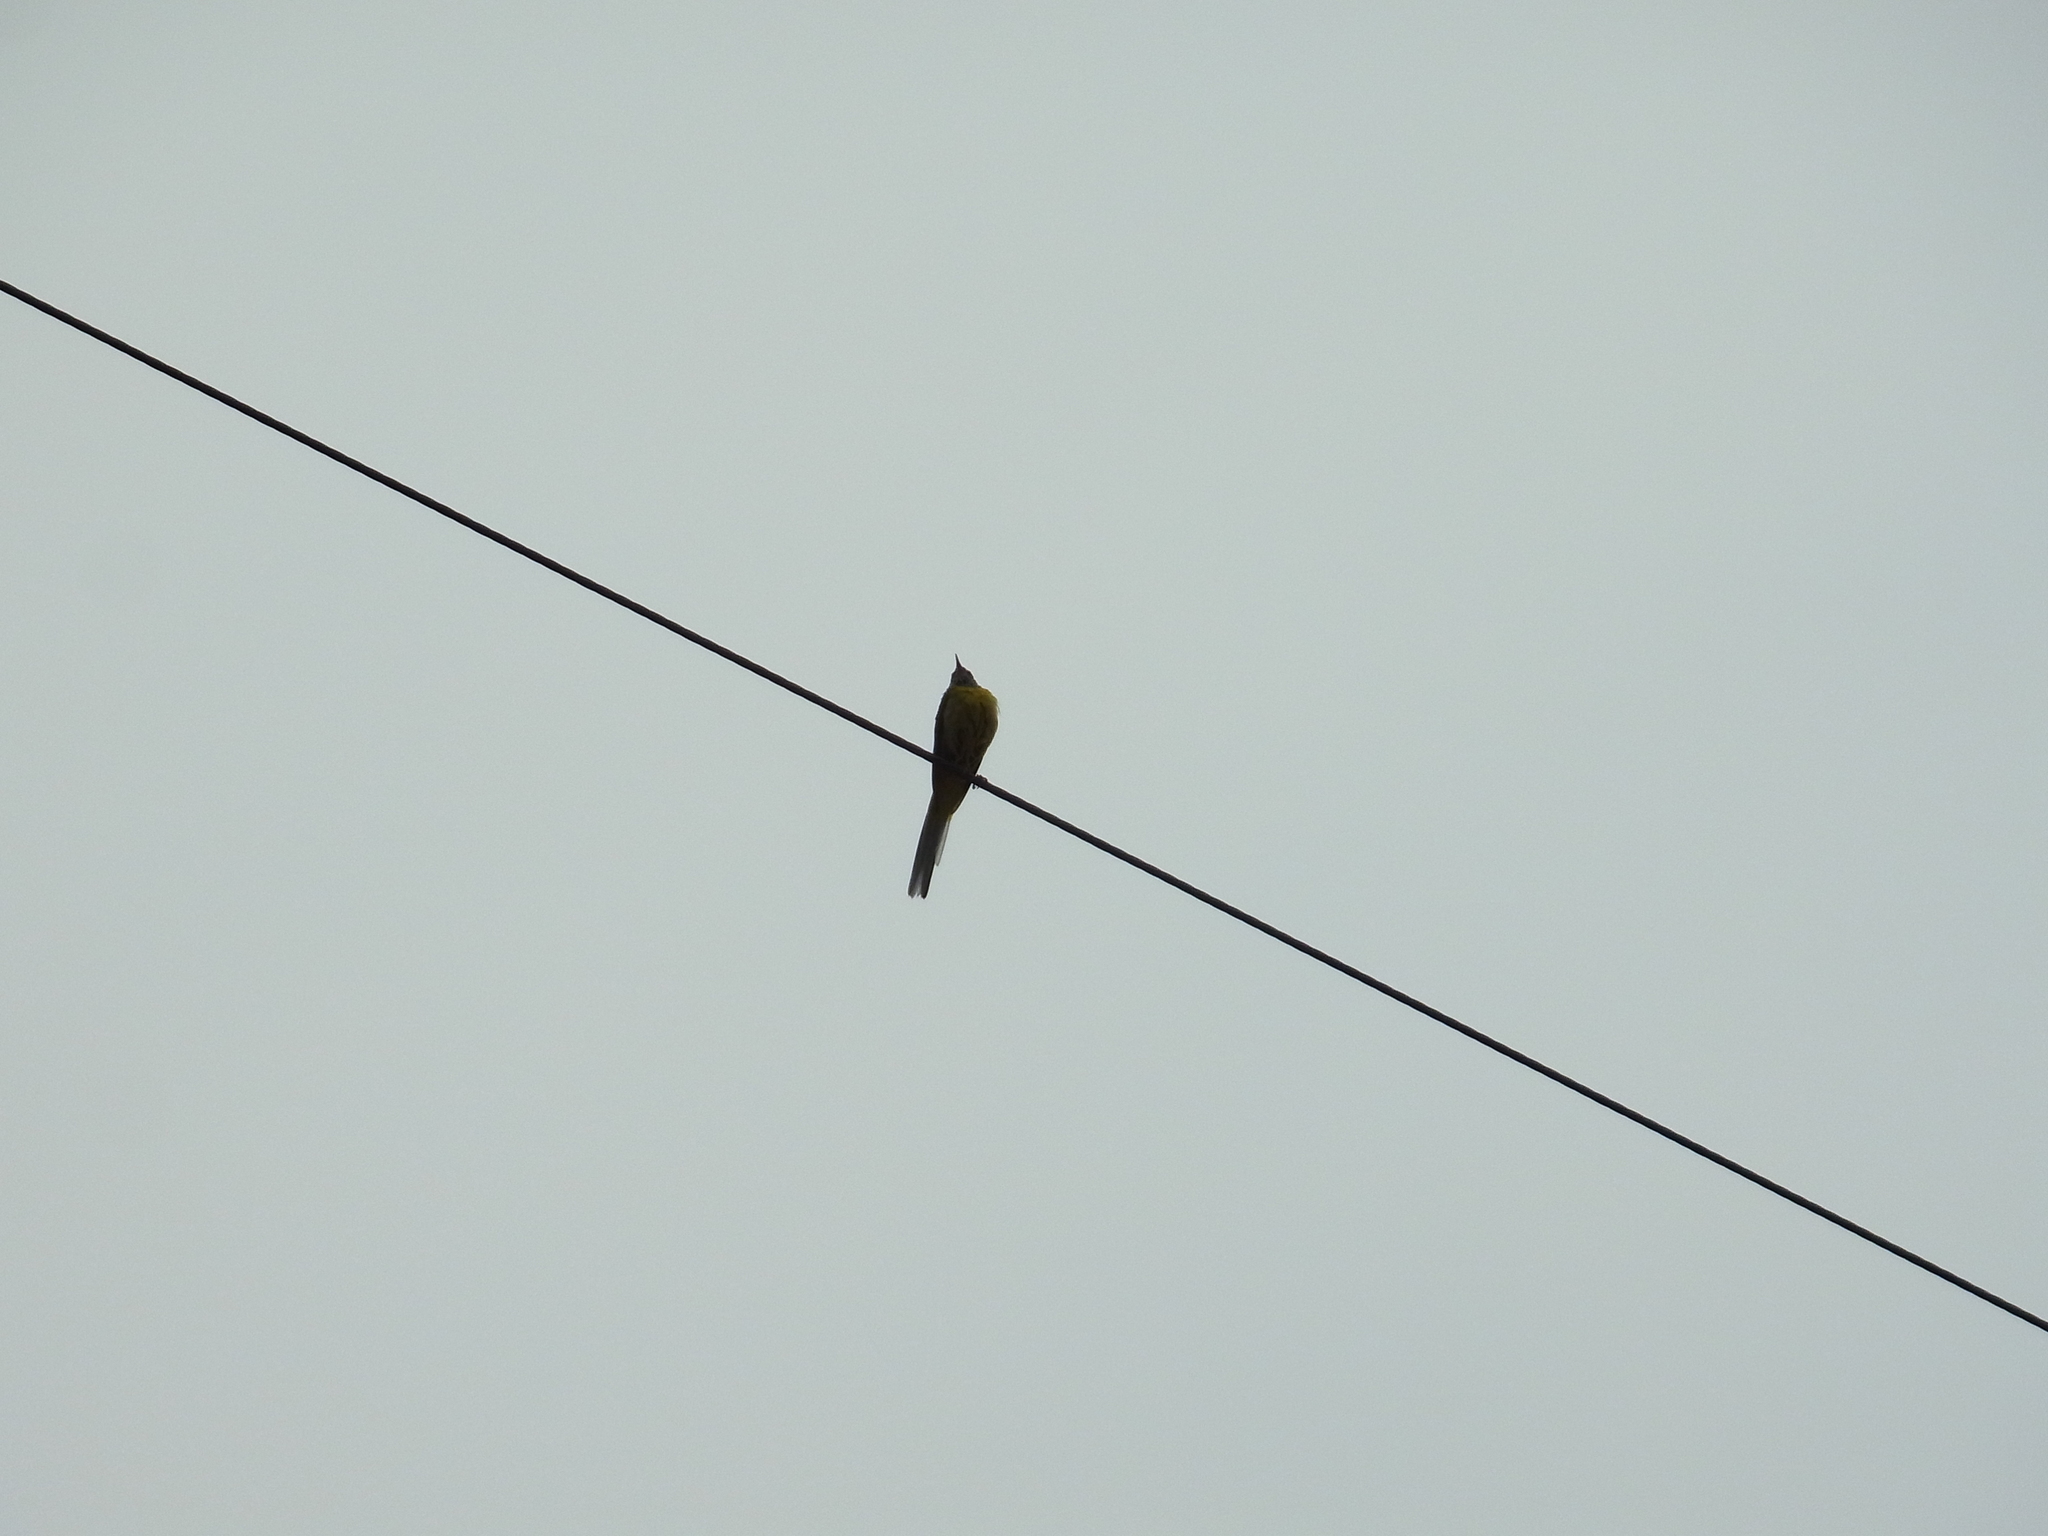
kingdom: Animalia
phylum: Chordata
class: Aves
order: Passeriformes
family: Motacillidae
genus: Motacilla
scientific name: Motacilla cinerea
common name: Grey wagtail
